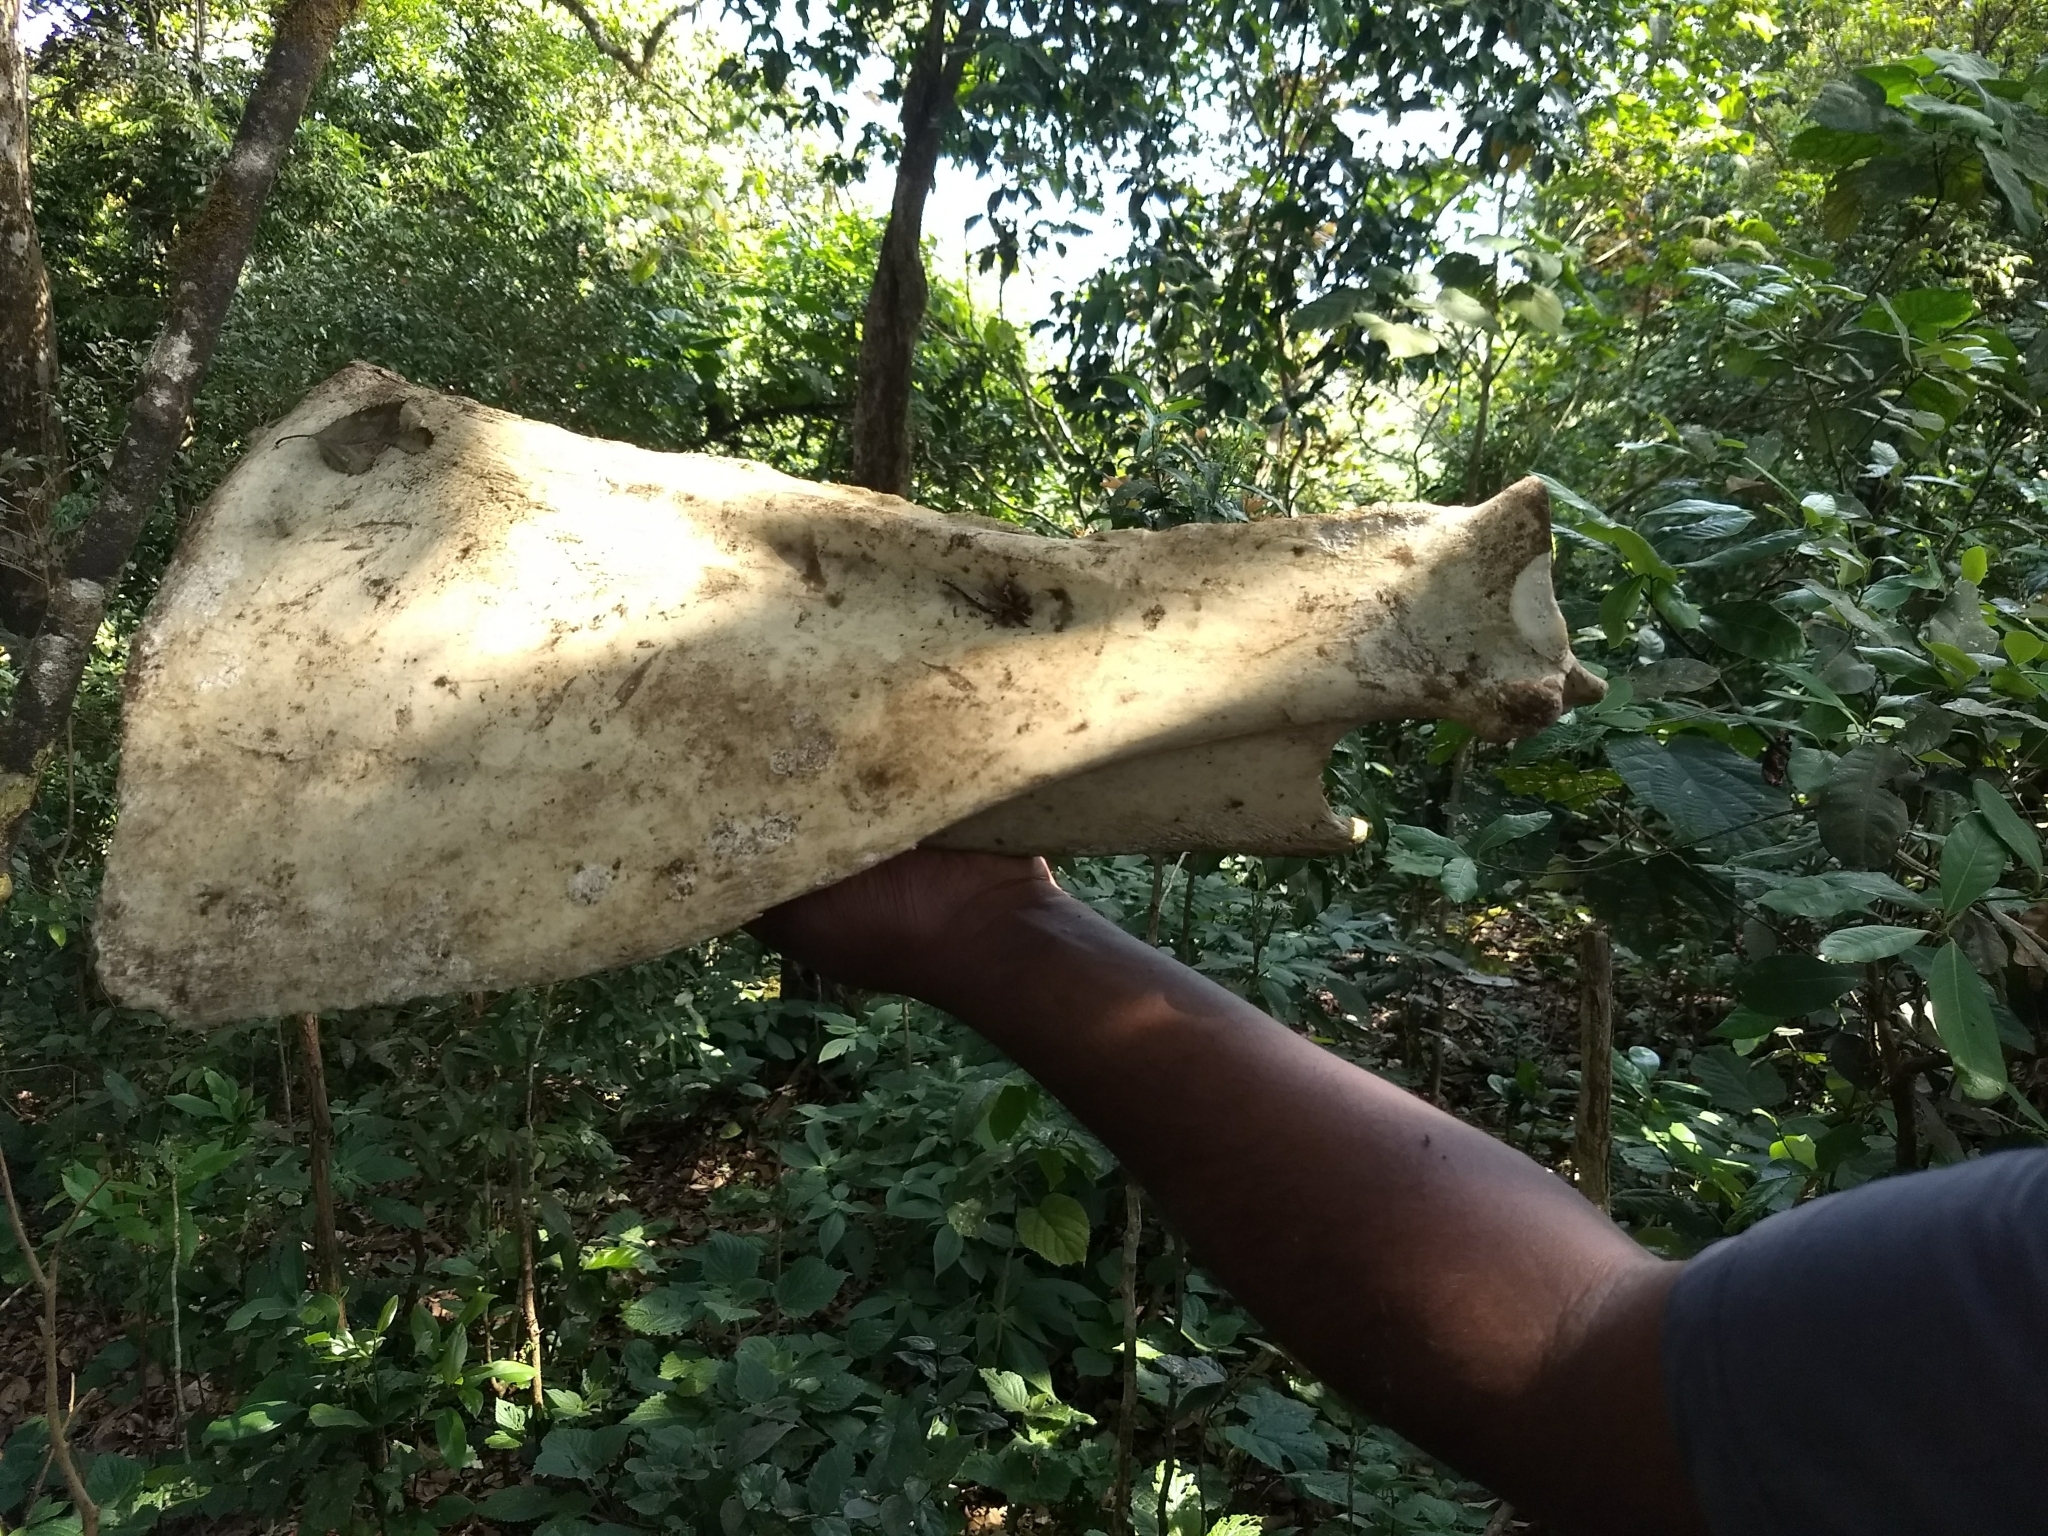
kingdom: Animalia
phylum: Chordata
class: Mammalia
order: Artiodactyla
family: Suidae
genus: Sus
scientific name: Sus scrofa
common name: Wild boar
